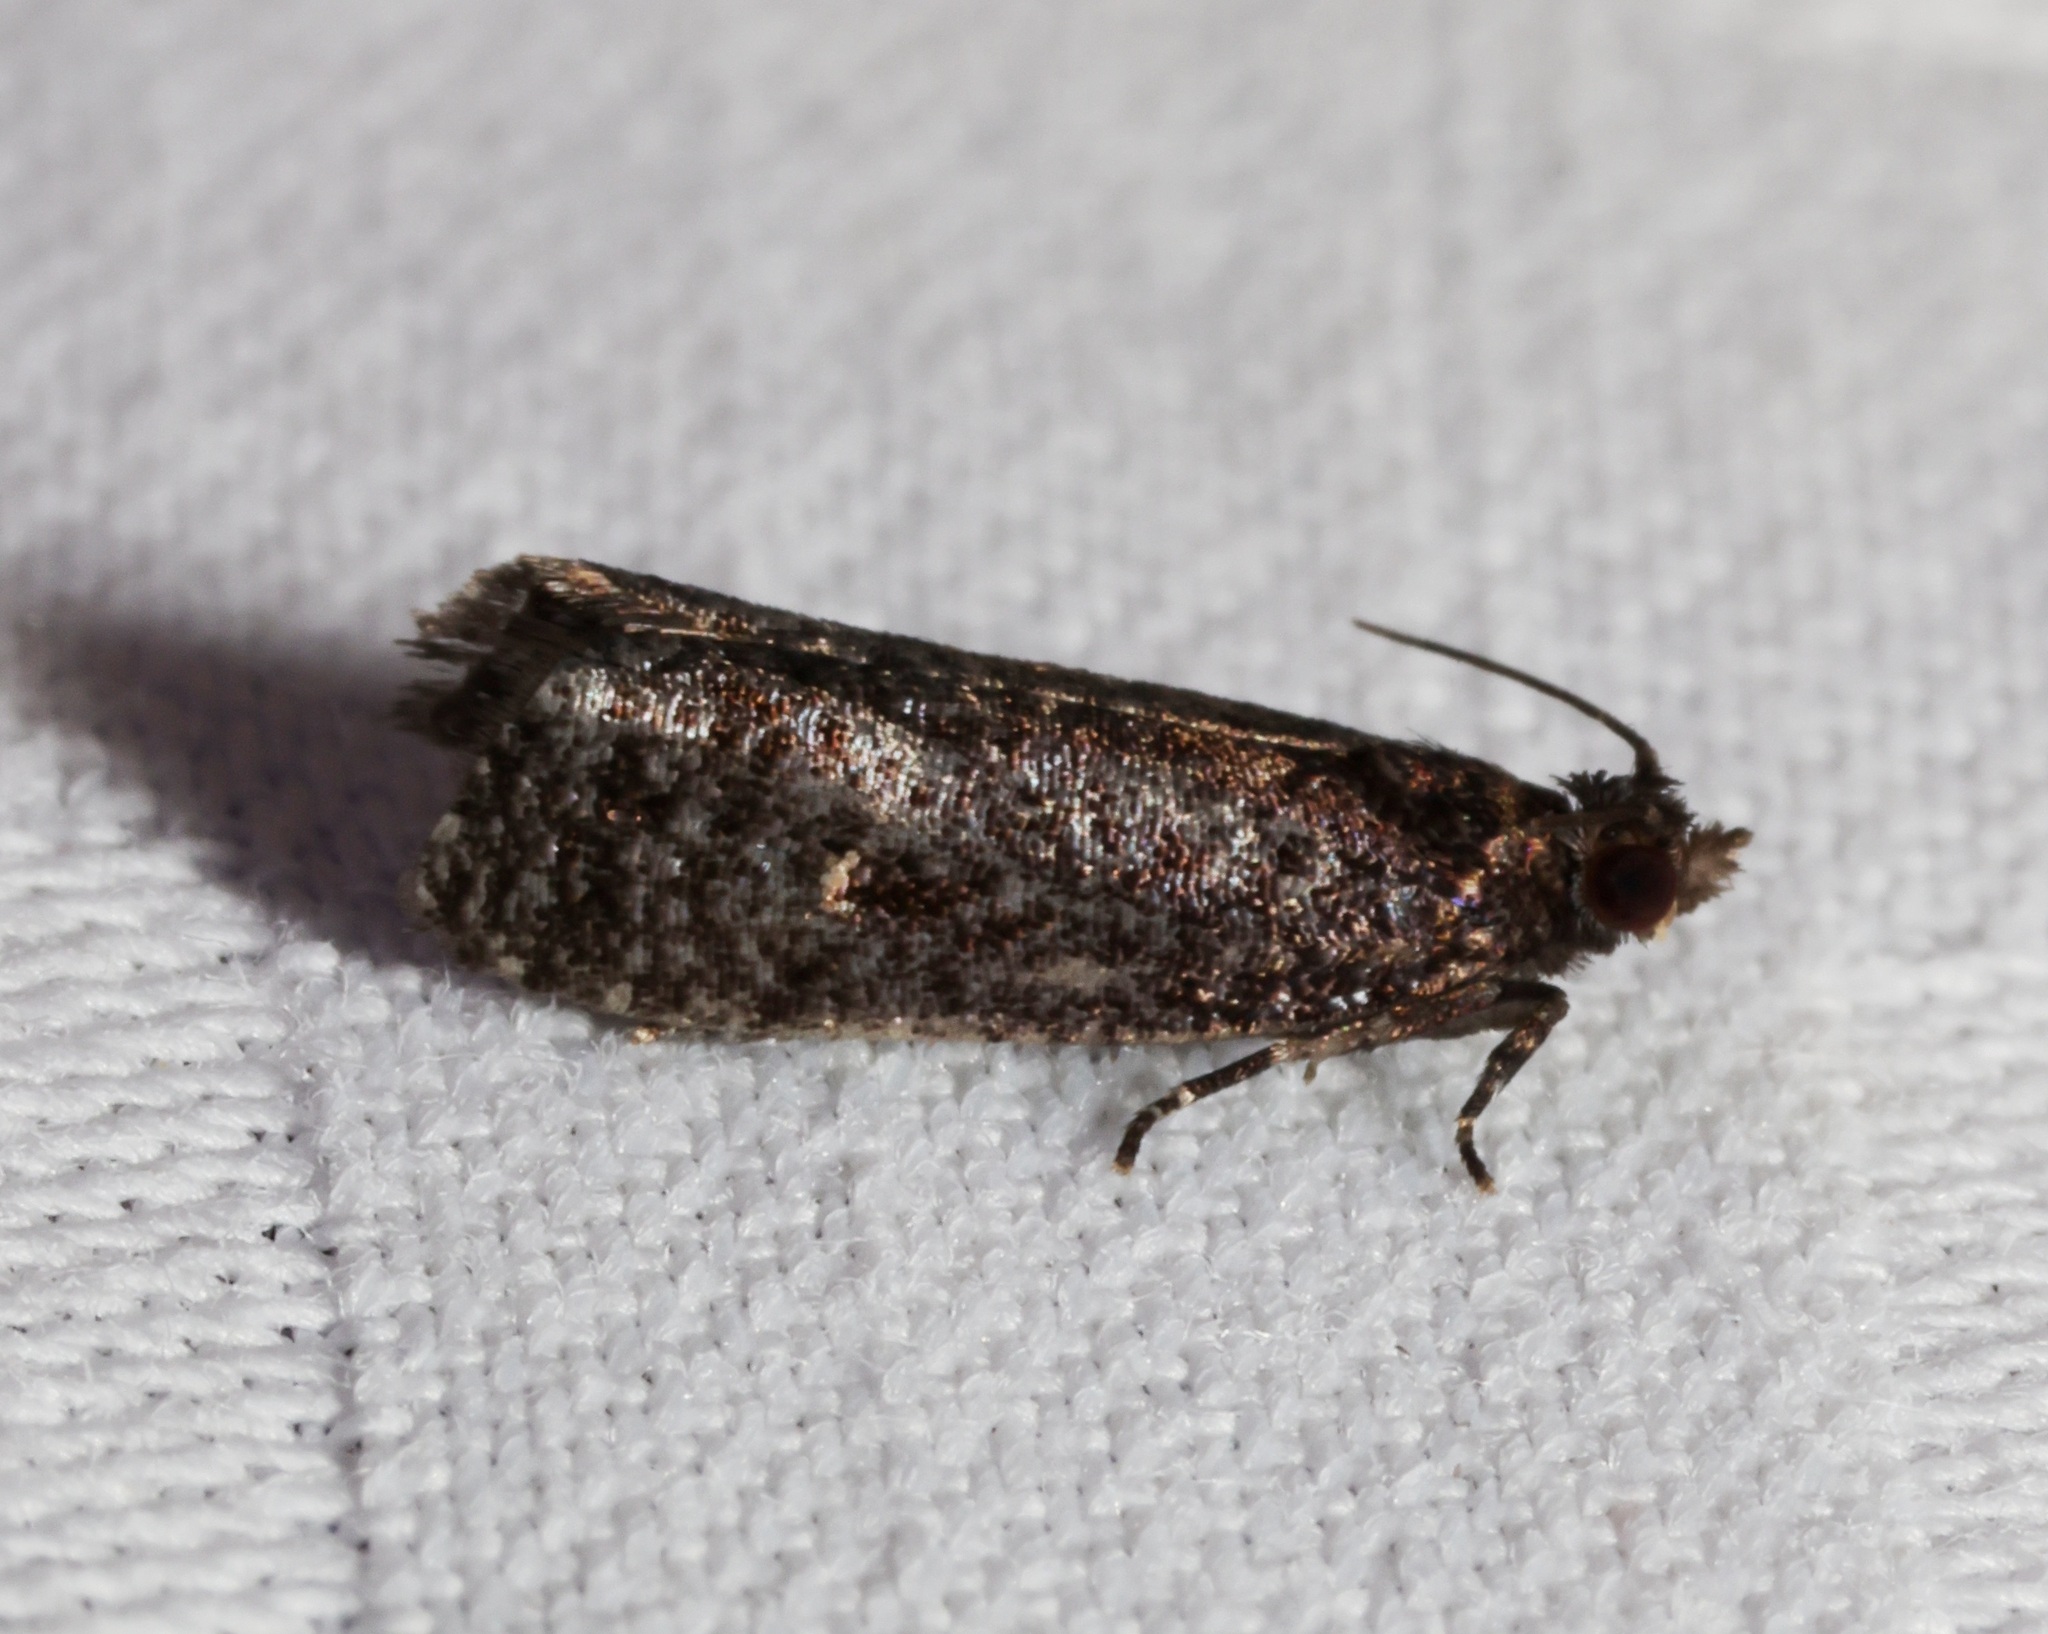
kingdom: Animalia
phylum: Arthropoda
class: Insecta
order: Lepidoptera
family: Tortricidae
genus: Cryptaspasma
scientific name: Cryptaspasma helota
